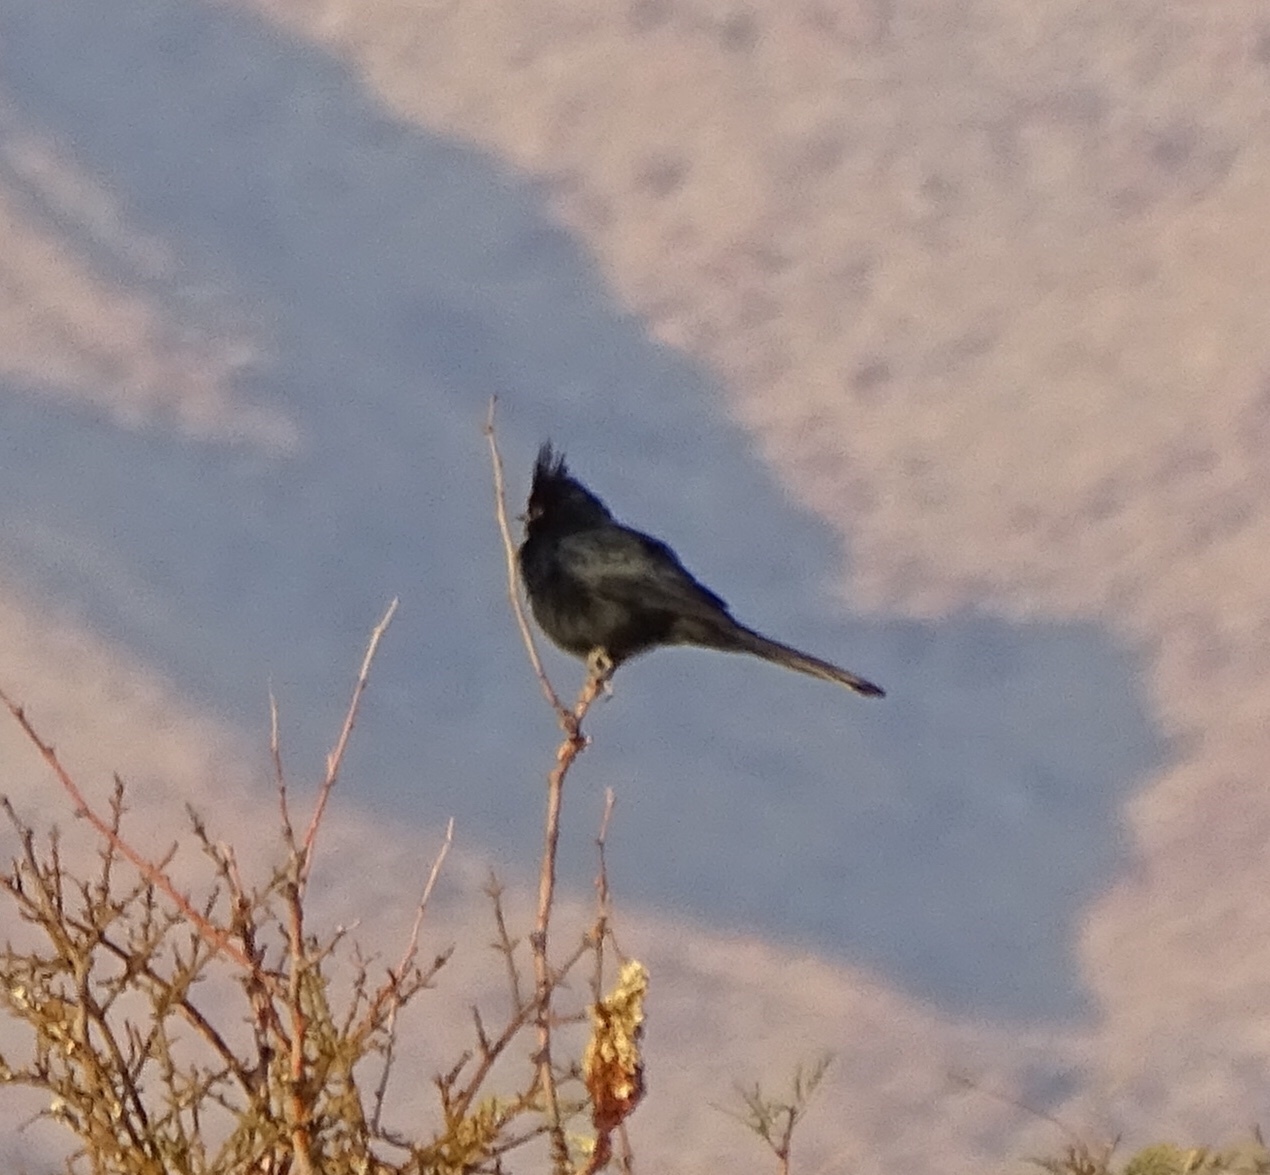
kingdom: Animalia
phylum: Chordata
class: Aves
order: Passeriformes
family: Ptilogonatidae
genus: Phainopepla
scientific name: Phainopepla nitens
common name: Phainopepla
